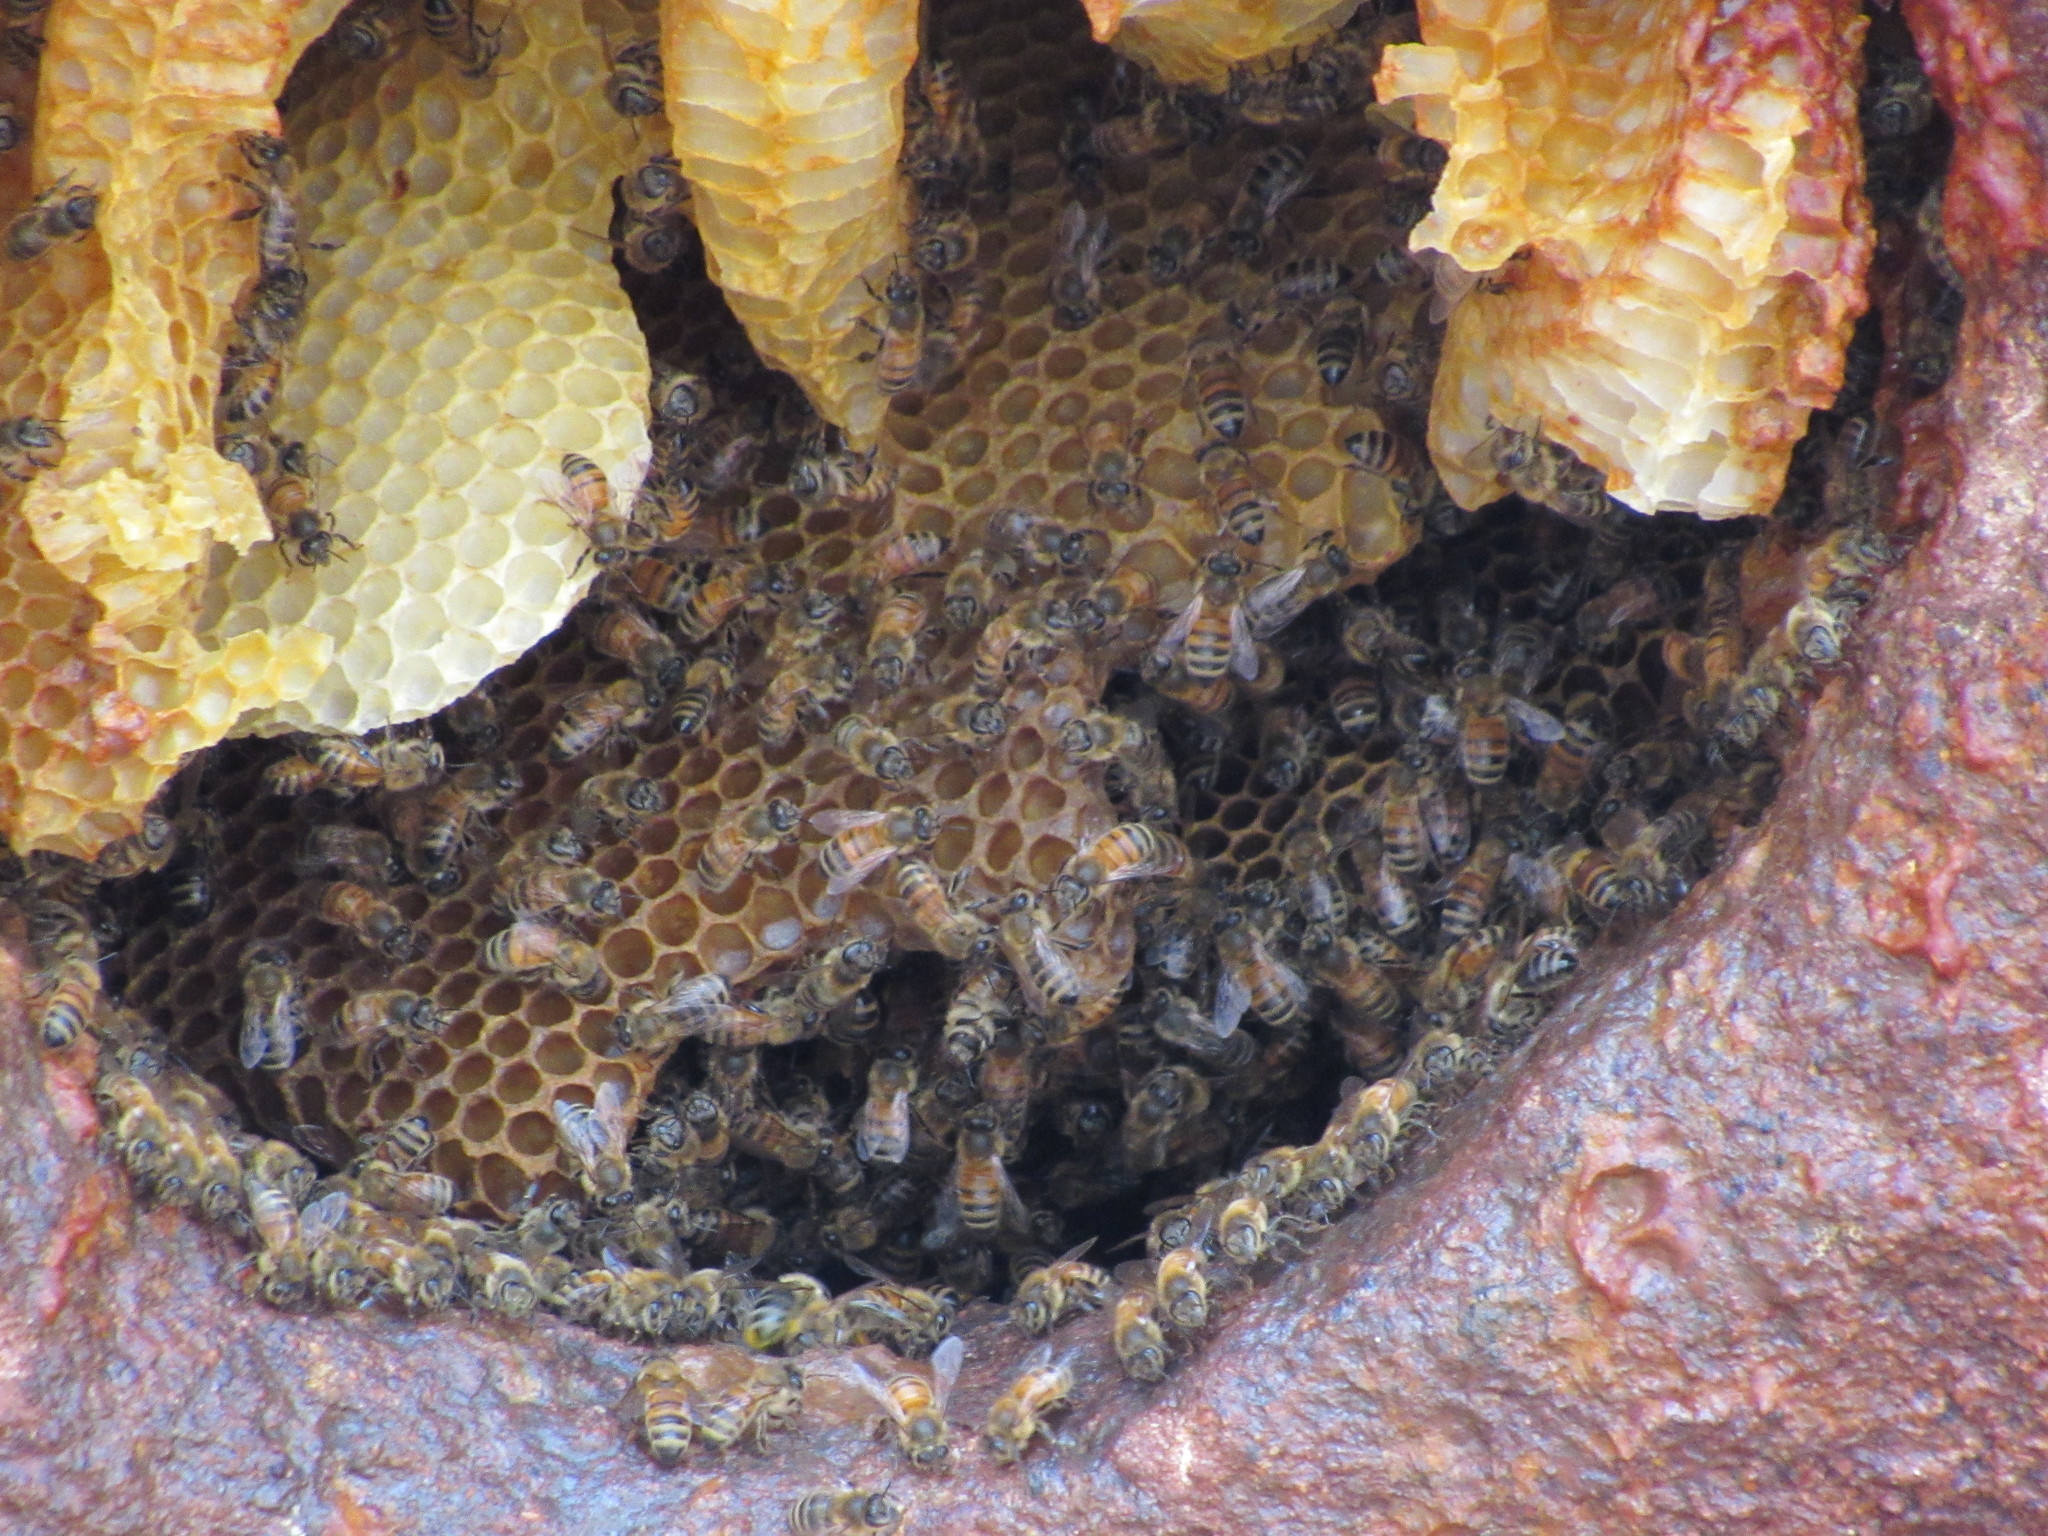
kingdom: Animalia
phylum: Arthropoda
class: Insecta
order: Hymenoptera
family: Apidae
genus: Apis
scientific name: Apis mellifera
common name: Honey bee
